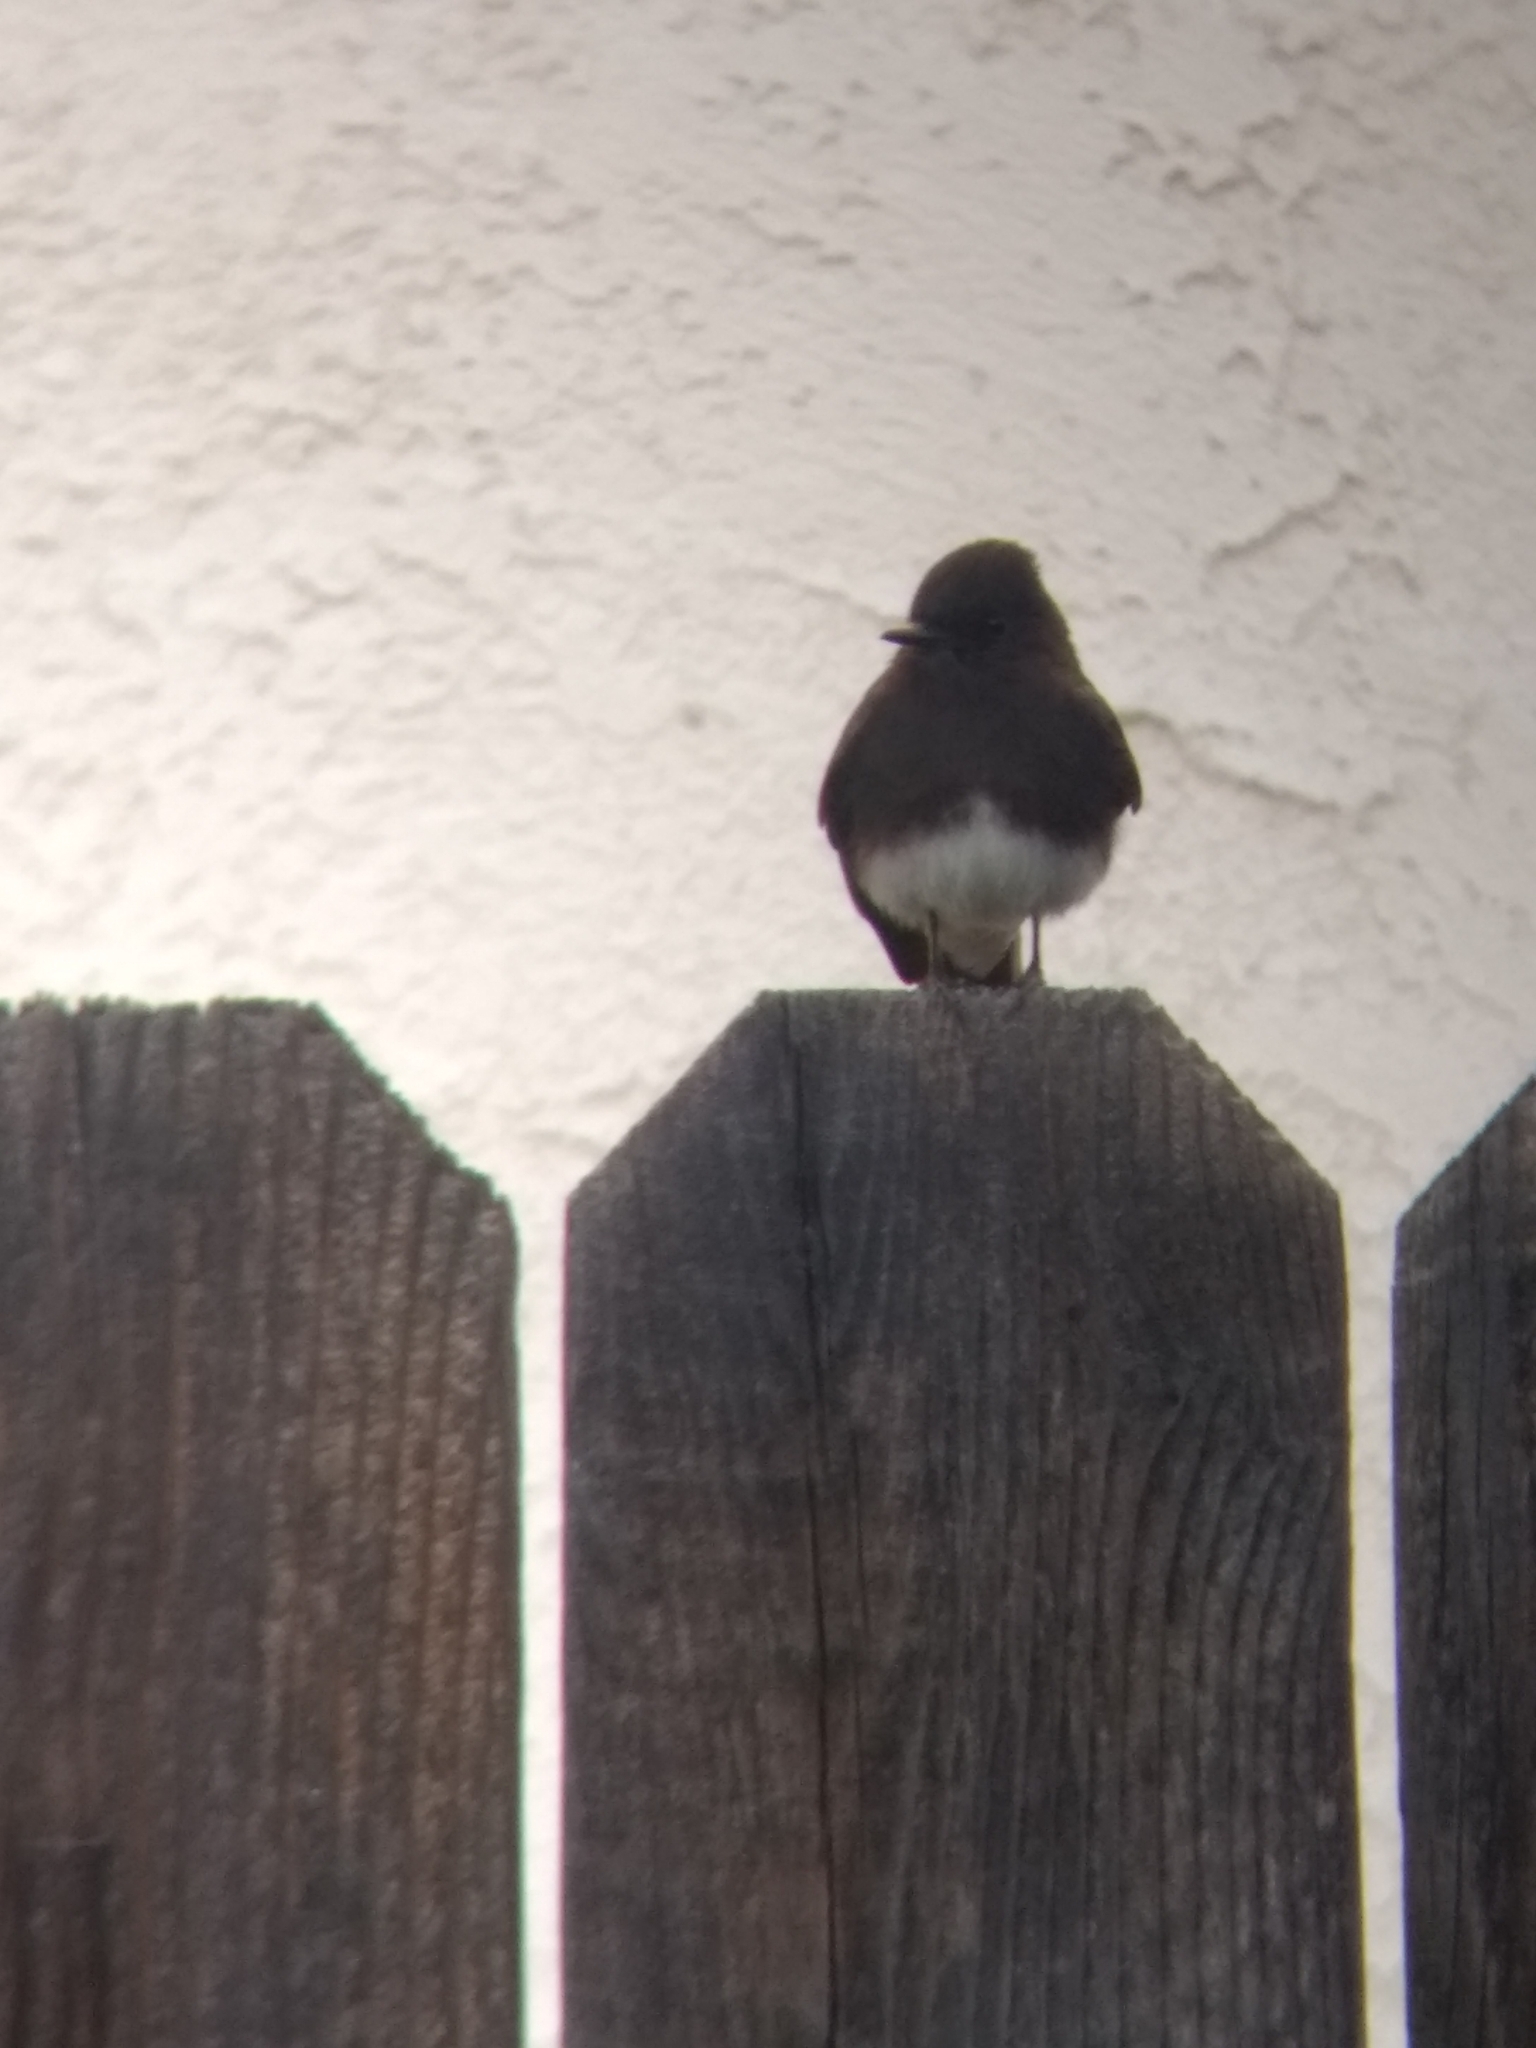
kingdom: Animalia
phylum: Chordata
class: Aves
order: Passeriformes
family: Tyrannidae
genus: Sayornis
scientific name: Sayornis nigricans
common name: Black phoebe
